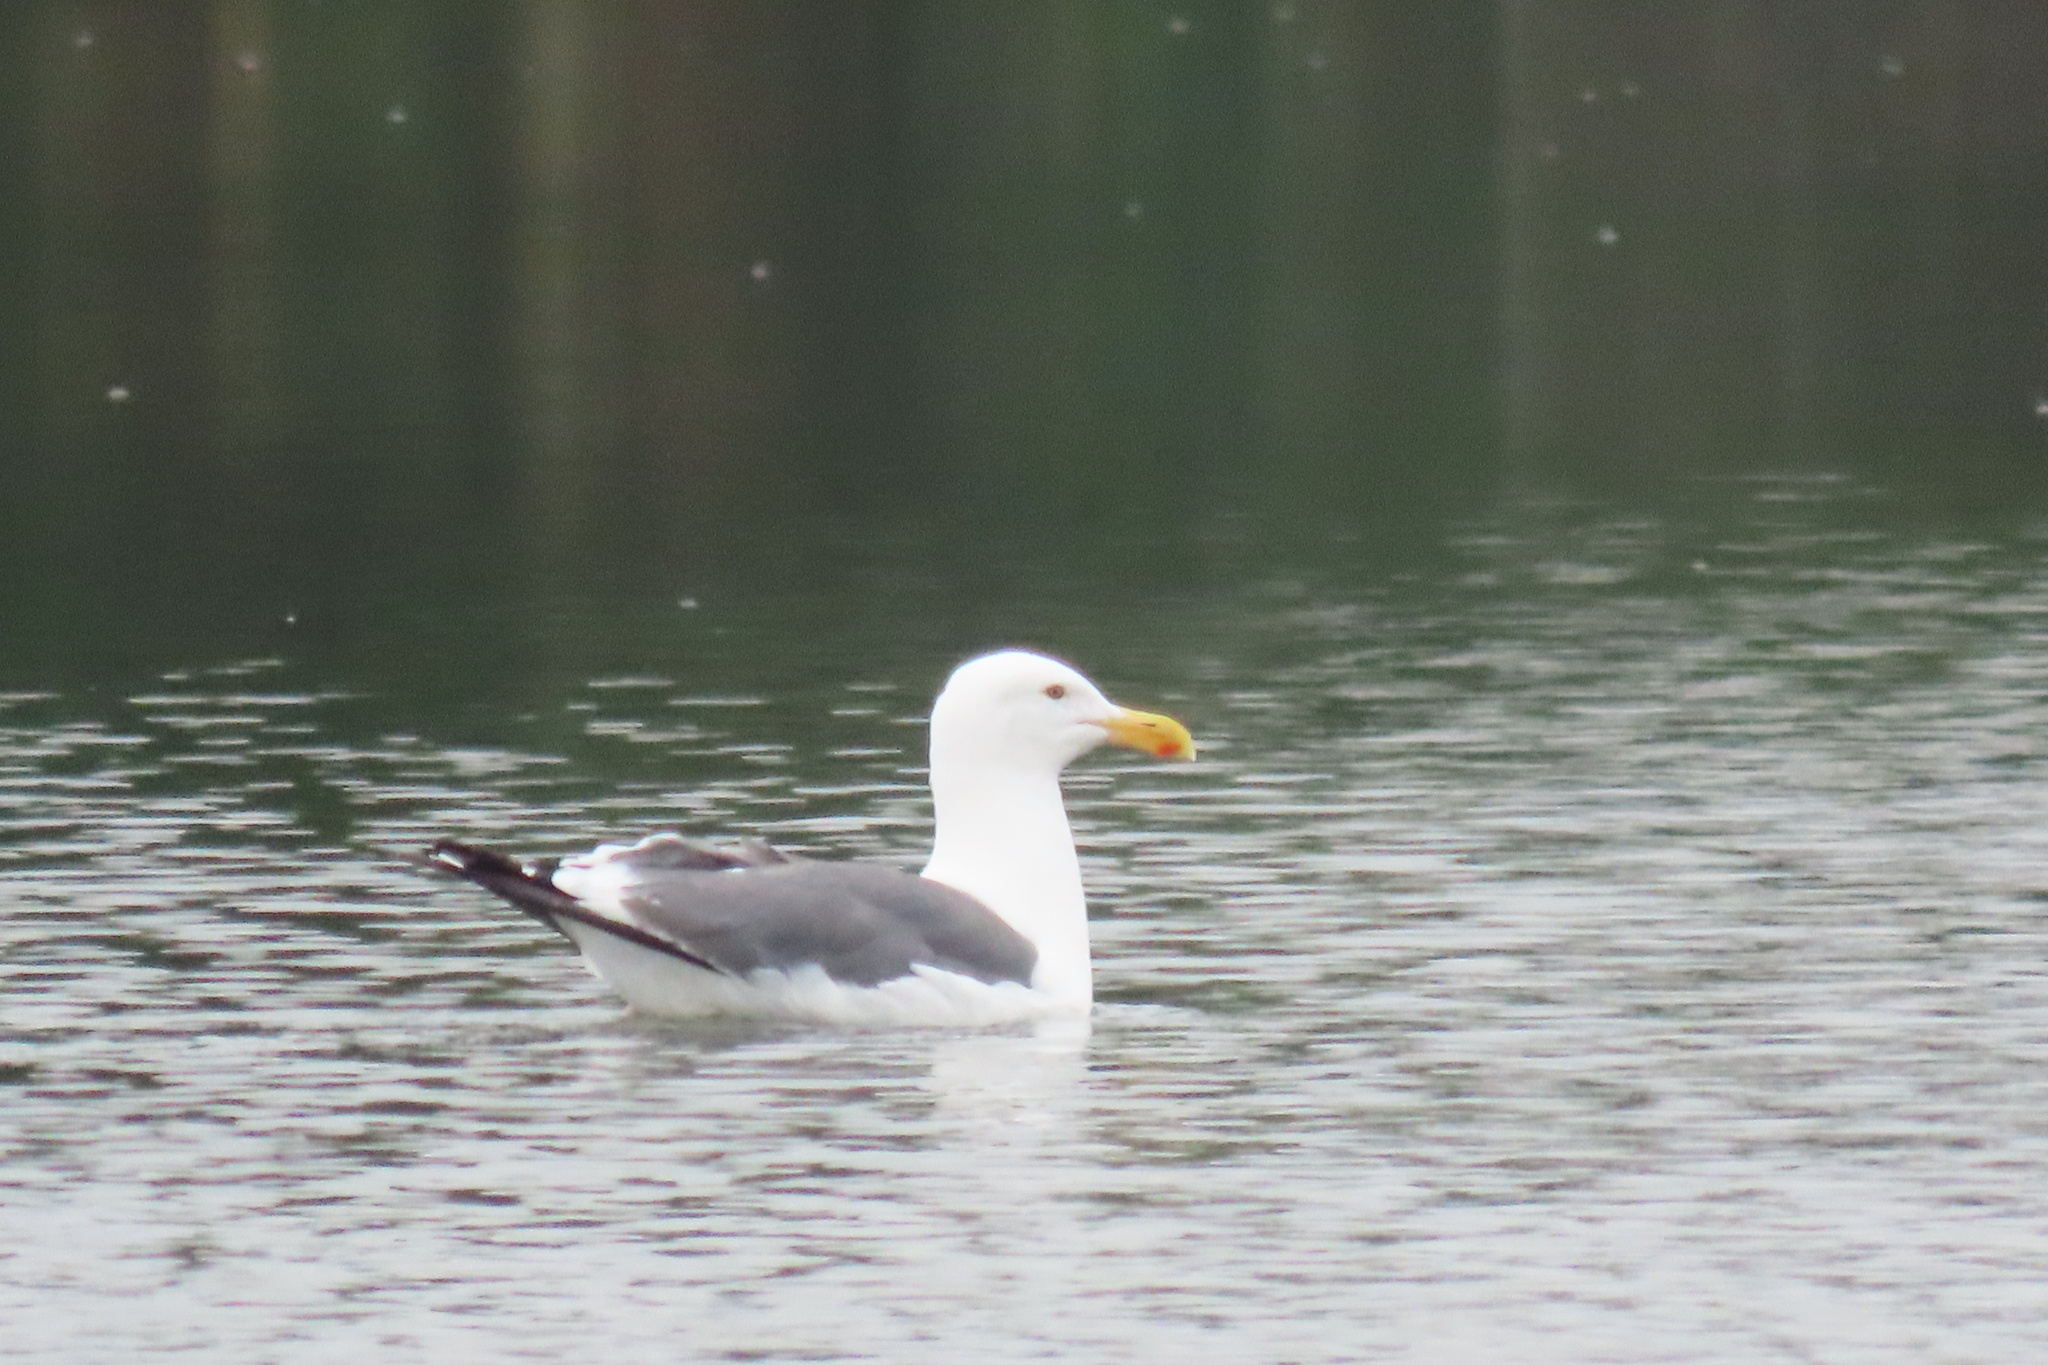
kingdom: Animalia
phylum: Chordata
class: Aves
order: Charadriiformes
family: Laridae
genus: Larus
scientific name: Larus occidentalis
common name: Western gull
